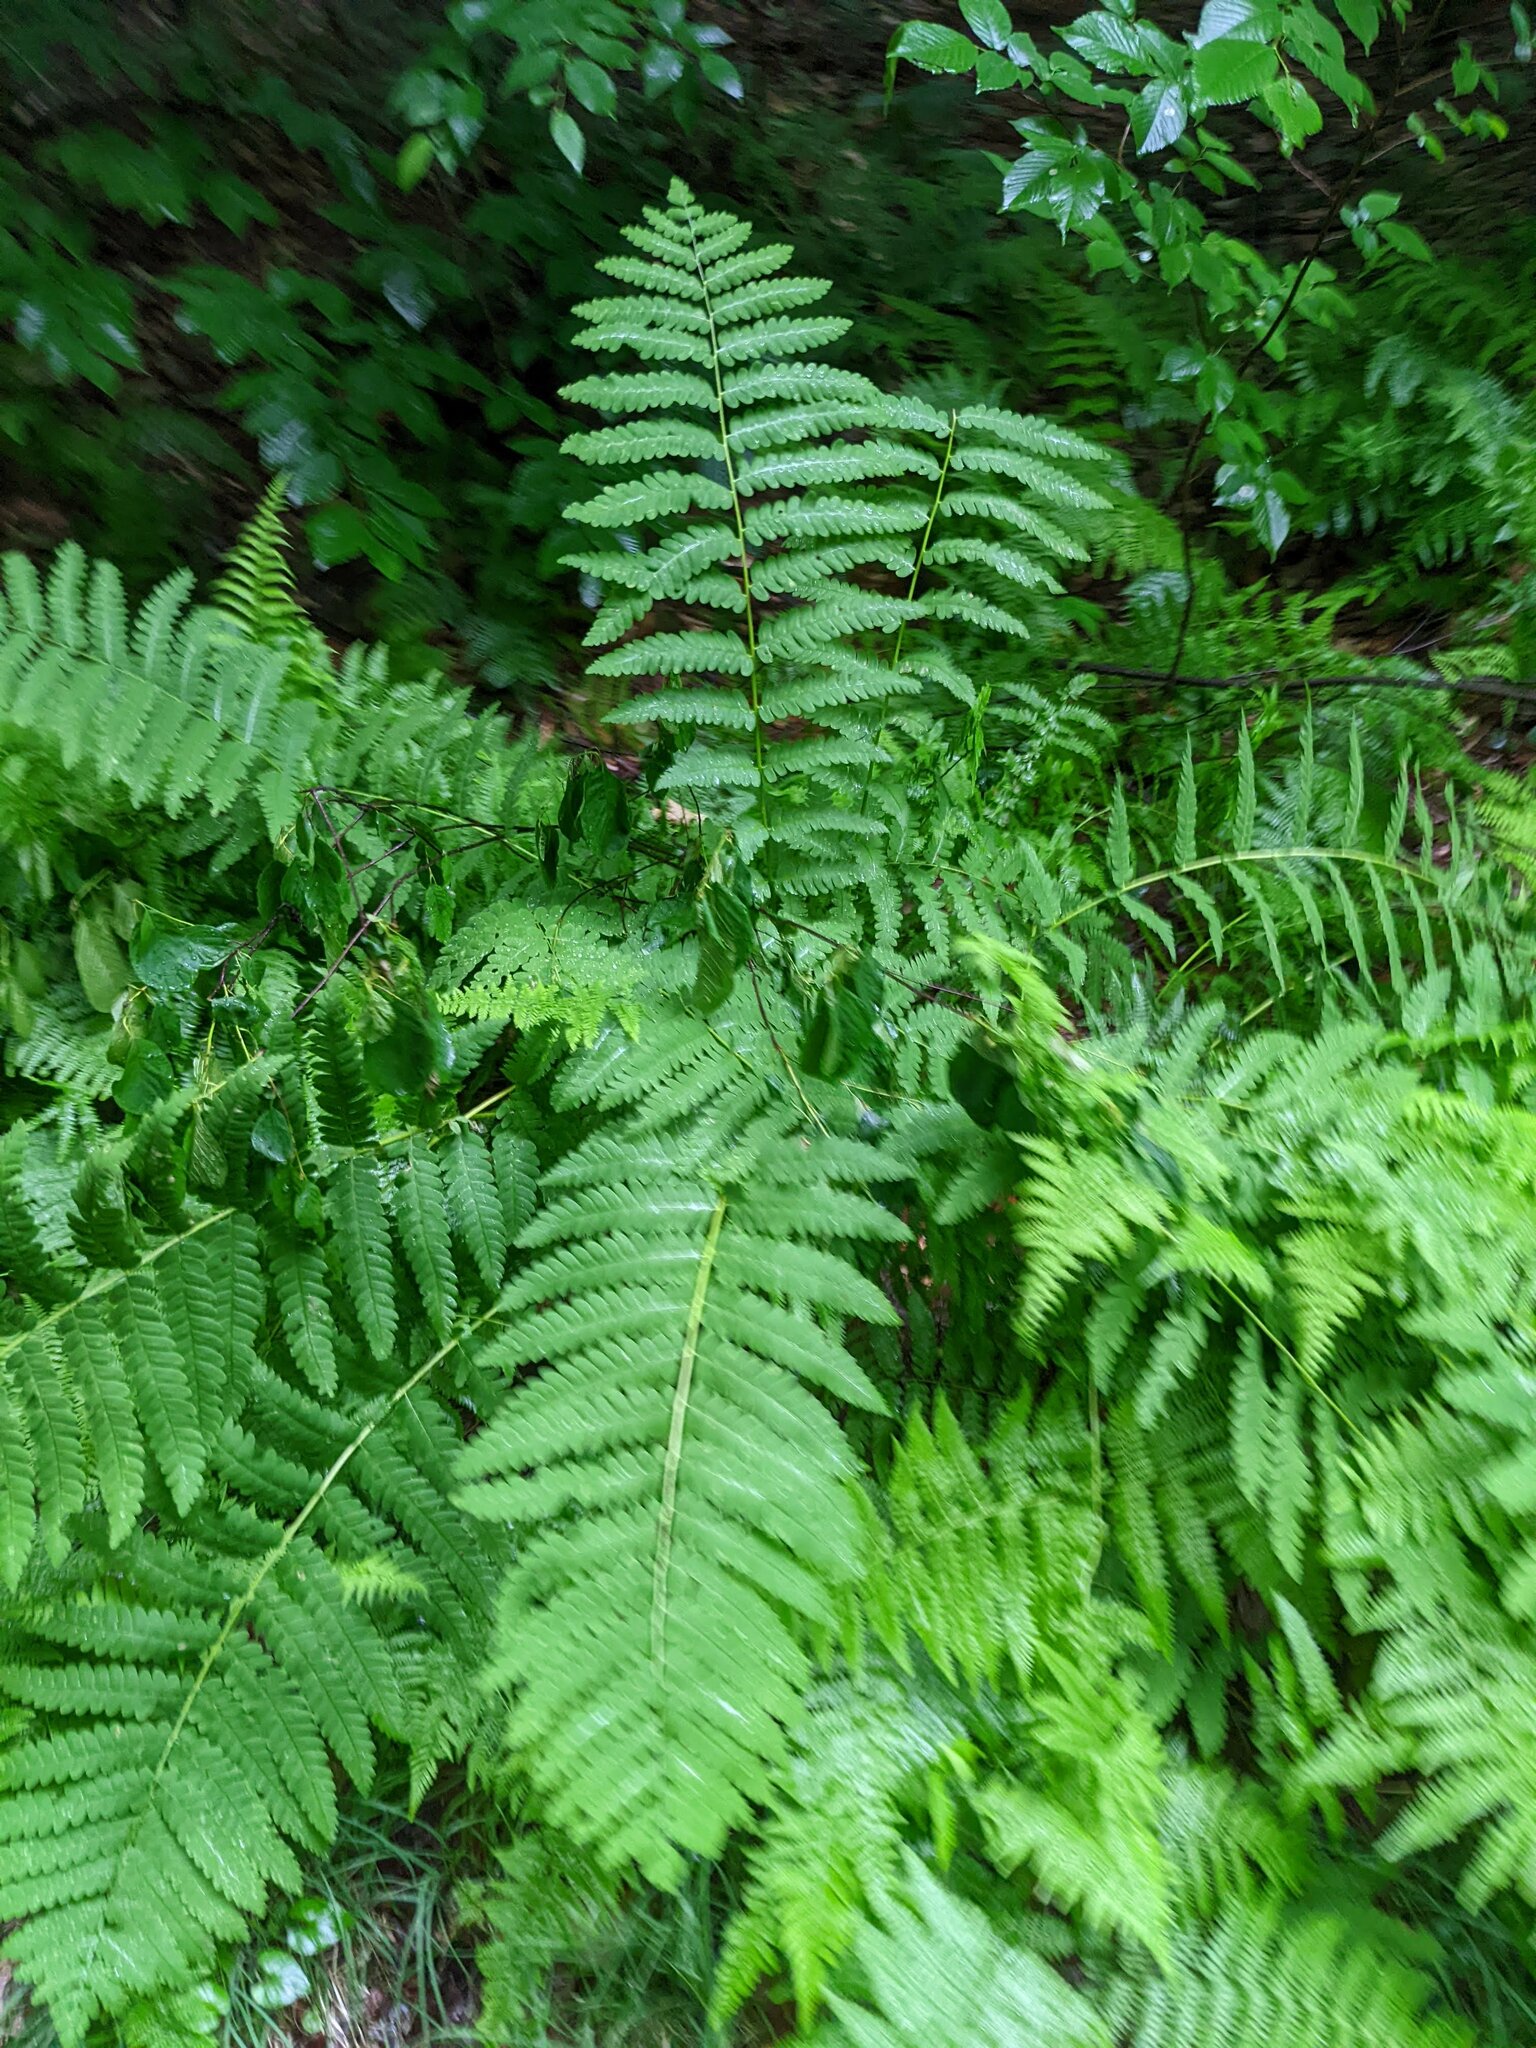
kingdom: Plantae
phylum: Tracheophyta
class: Polypodiopsida
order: Osmundales
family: Osmundaceae
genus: Claytosmunda
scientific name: Claytosmunda claytoniana
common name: Clayton's fern
